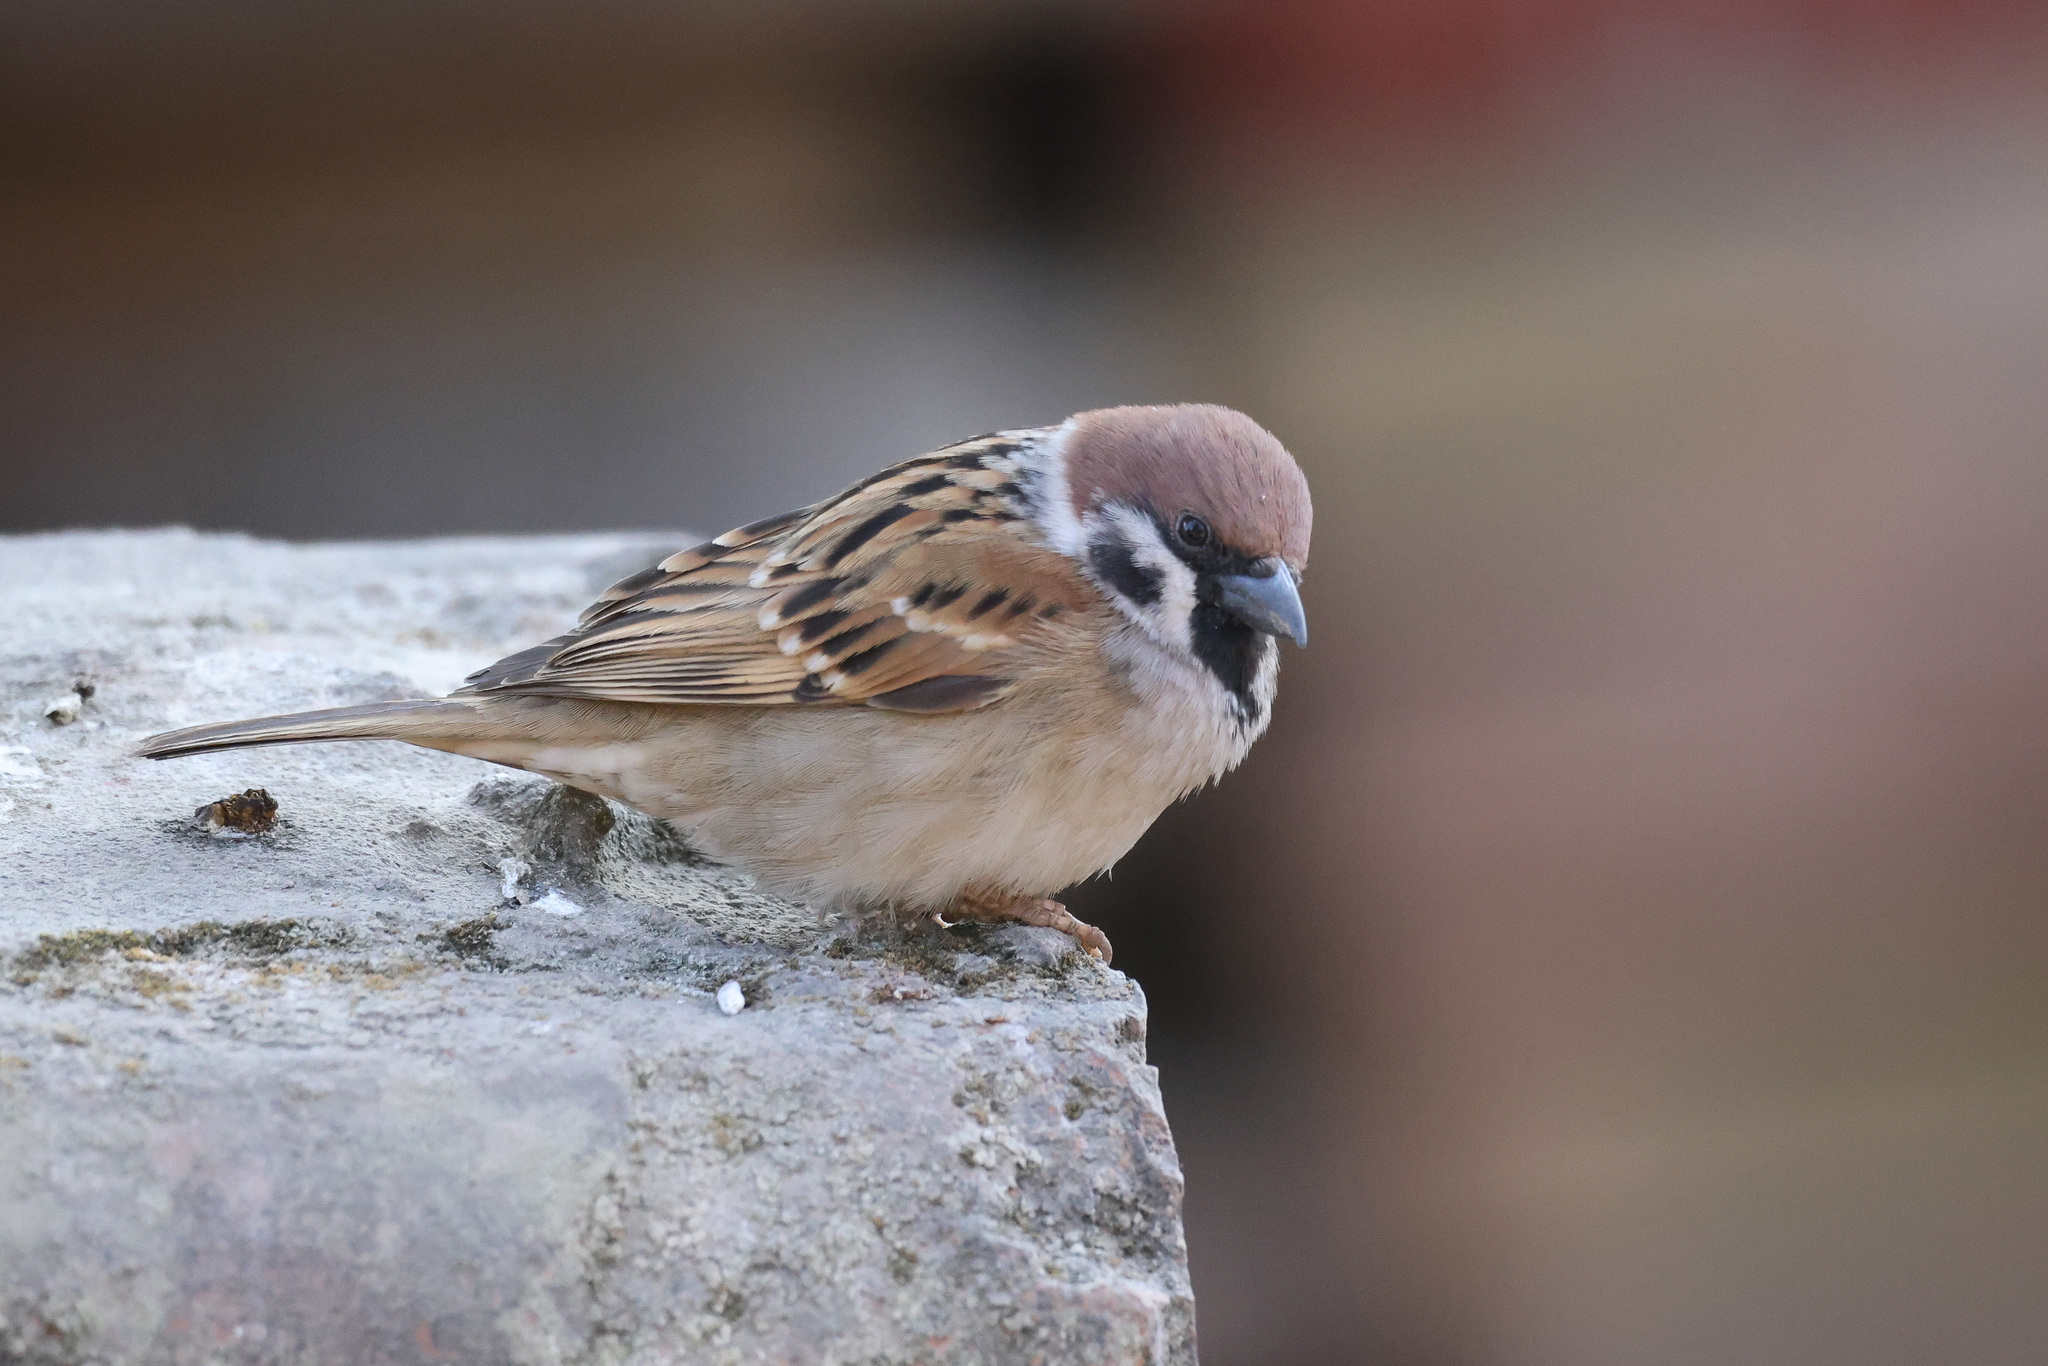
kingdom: Animalia
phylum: Chordata
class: Aves
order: Passeriformes
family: Passeridae
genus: Passer
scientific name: Passer montanus
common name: Eurasian tree sparrow
